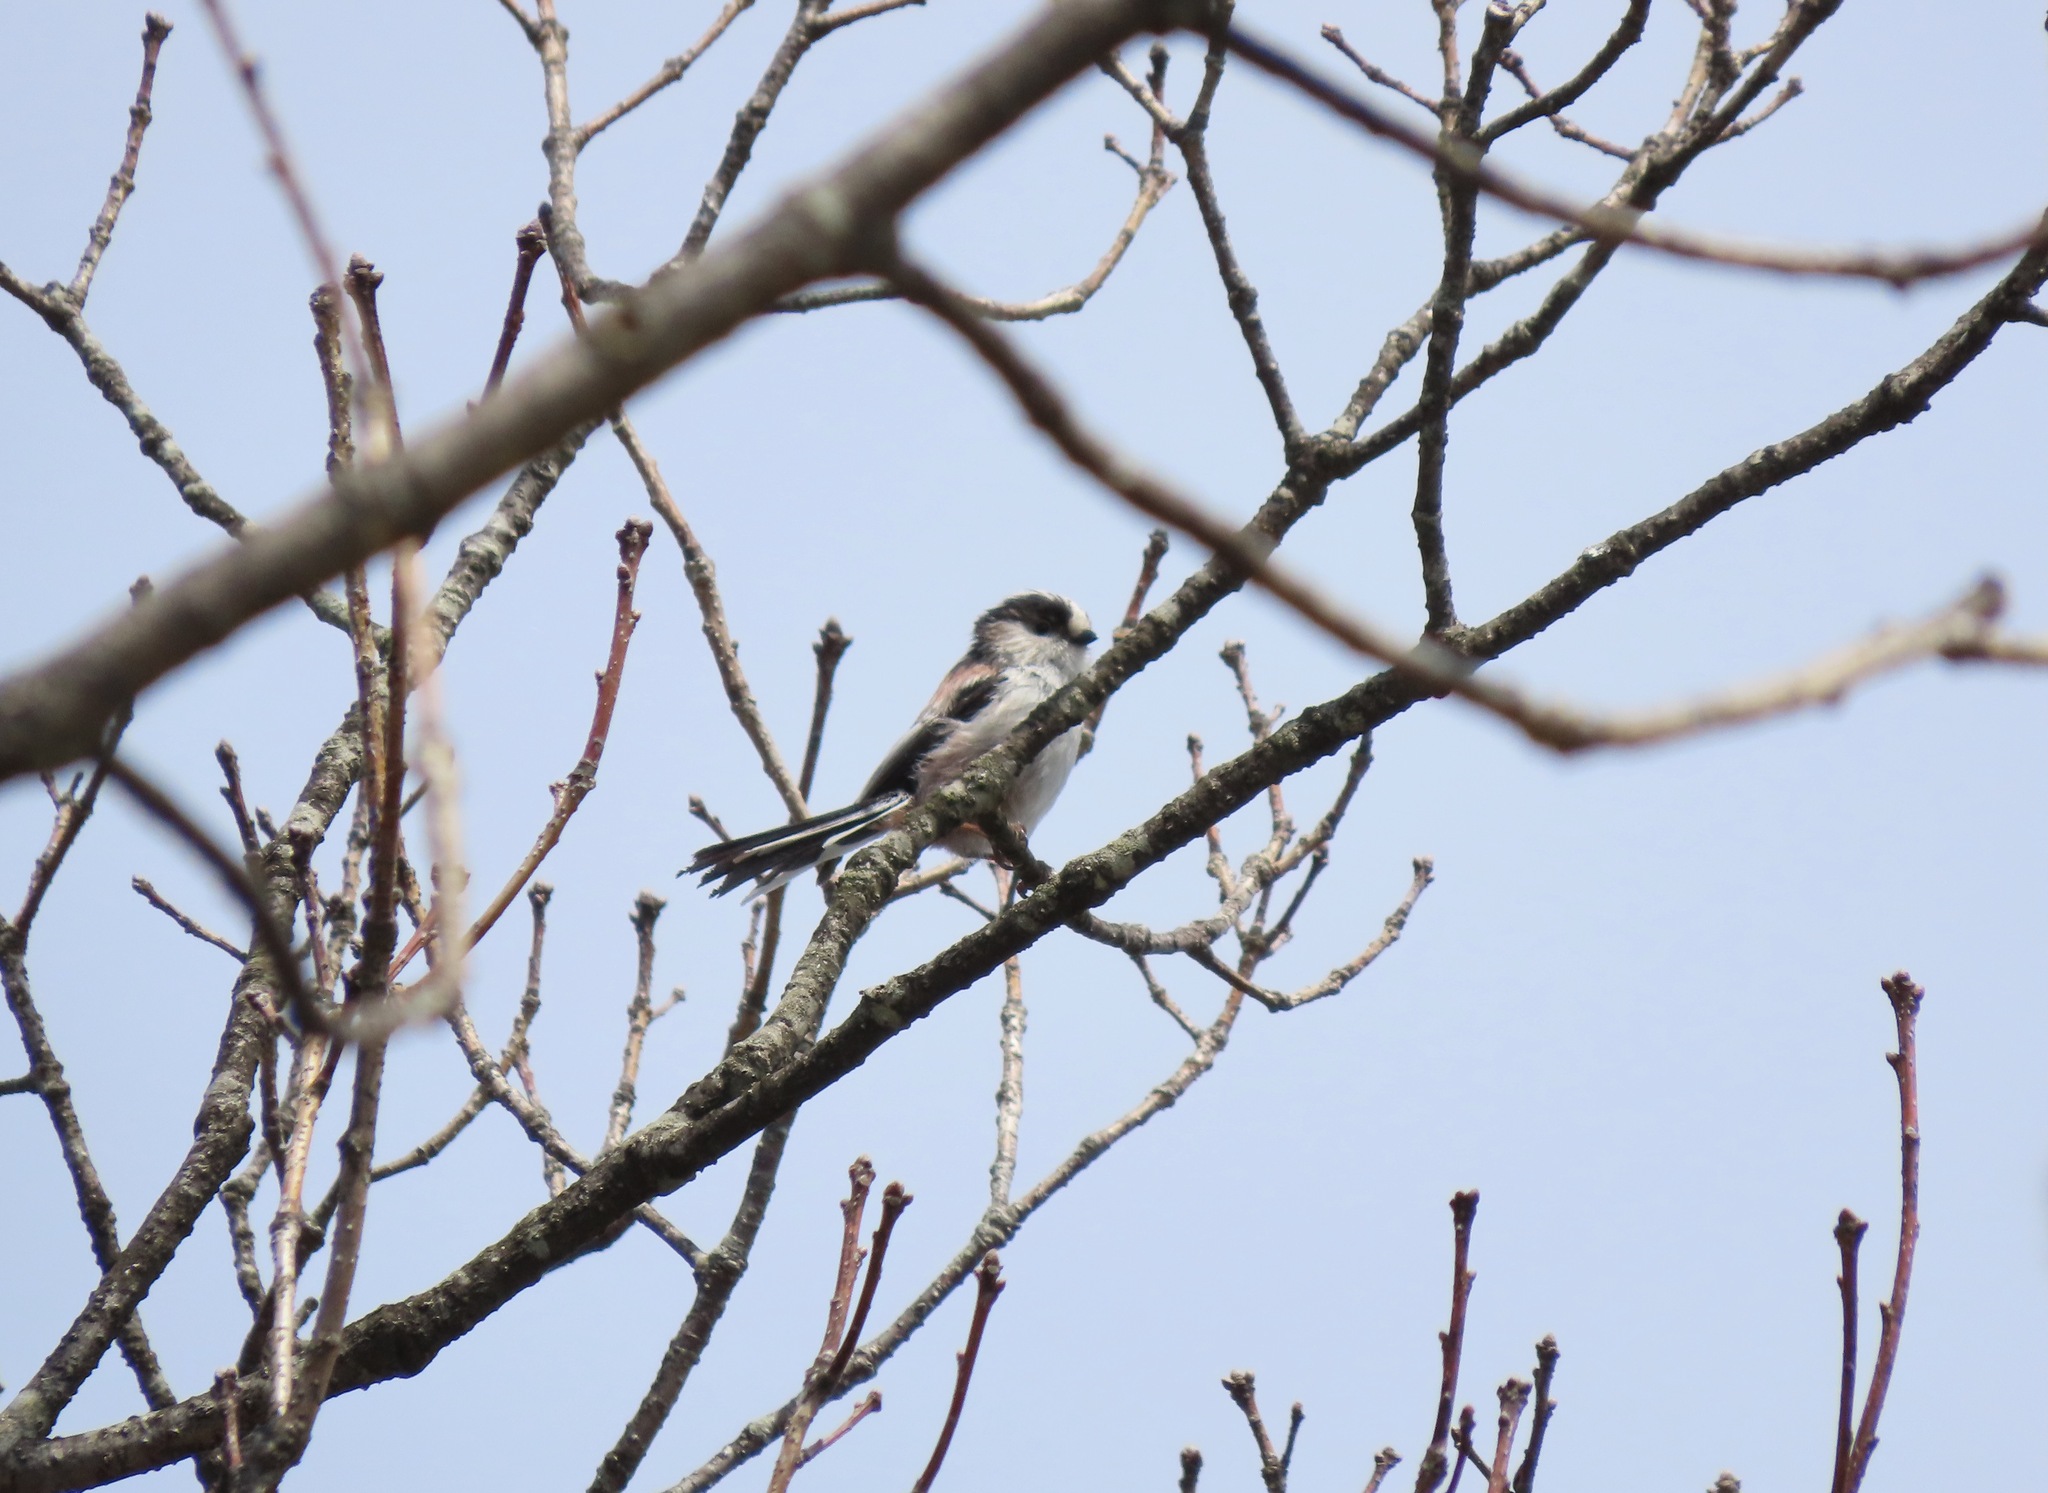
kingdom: Animalia
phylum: Chordata
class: Aves
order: Passeriformes
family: Aegithalidae
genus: Aegithalos
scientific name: Aegithalos caudatus
